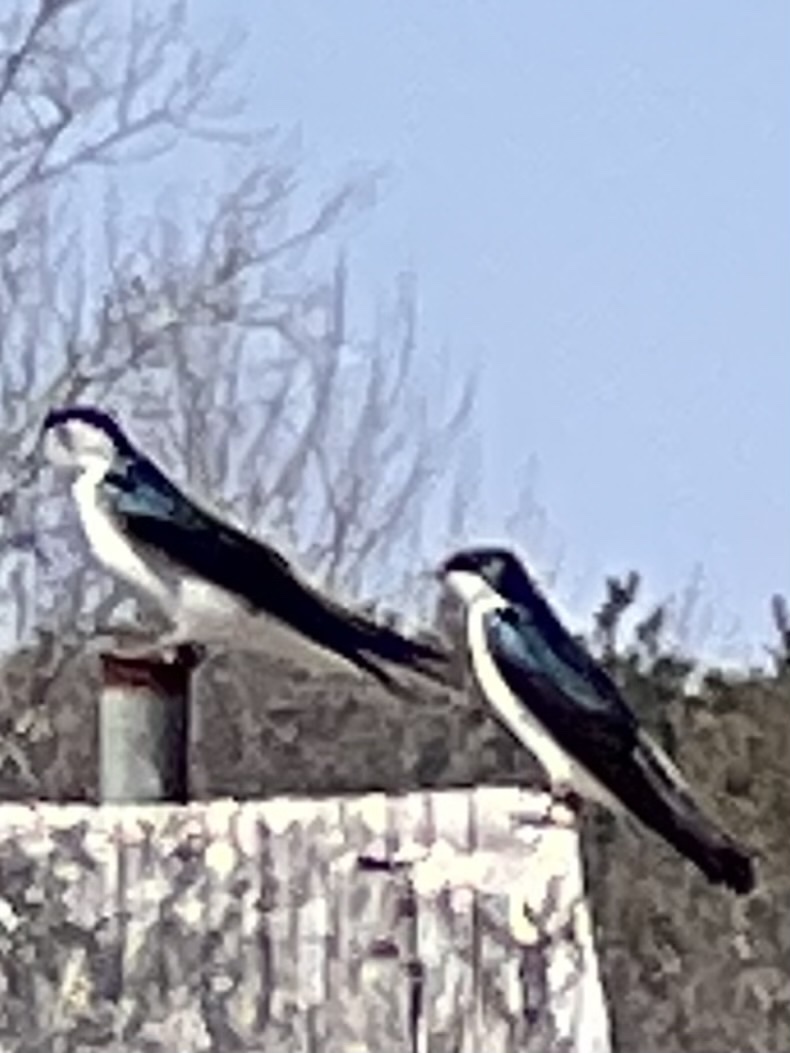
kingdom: Animalia
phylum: Chordata
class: Aves
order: Passeriformes
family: Hirundinidae
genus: Tachycineta
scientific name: Tachycineta bicolor
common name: Tree swallow
